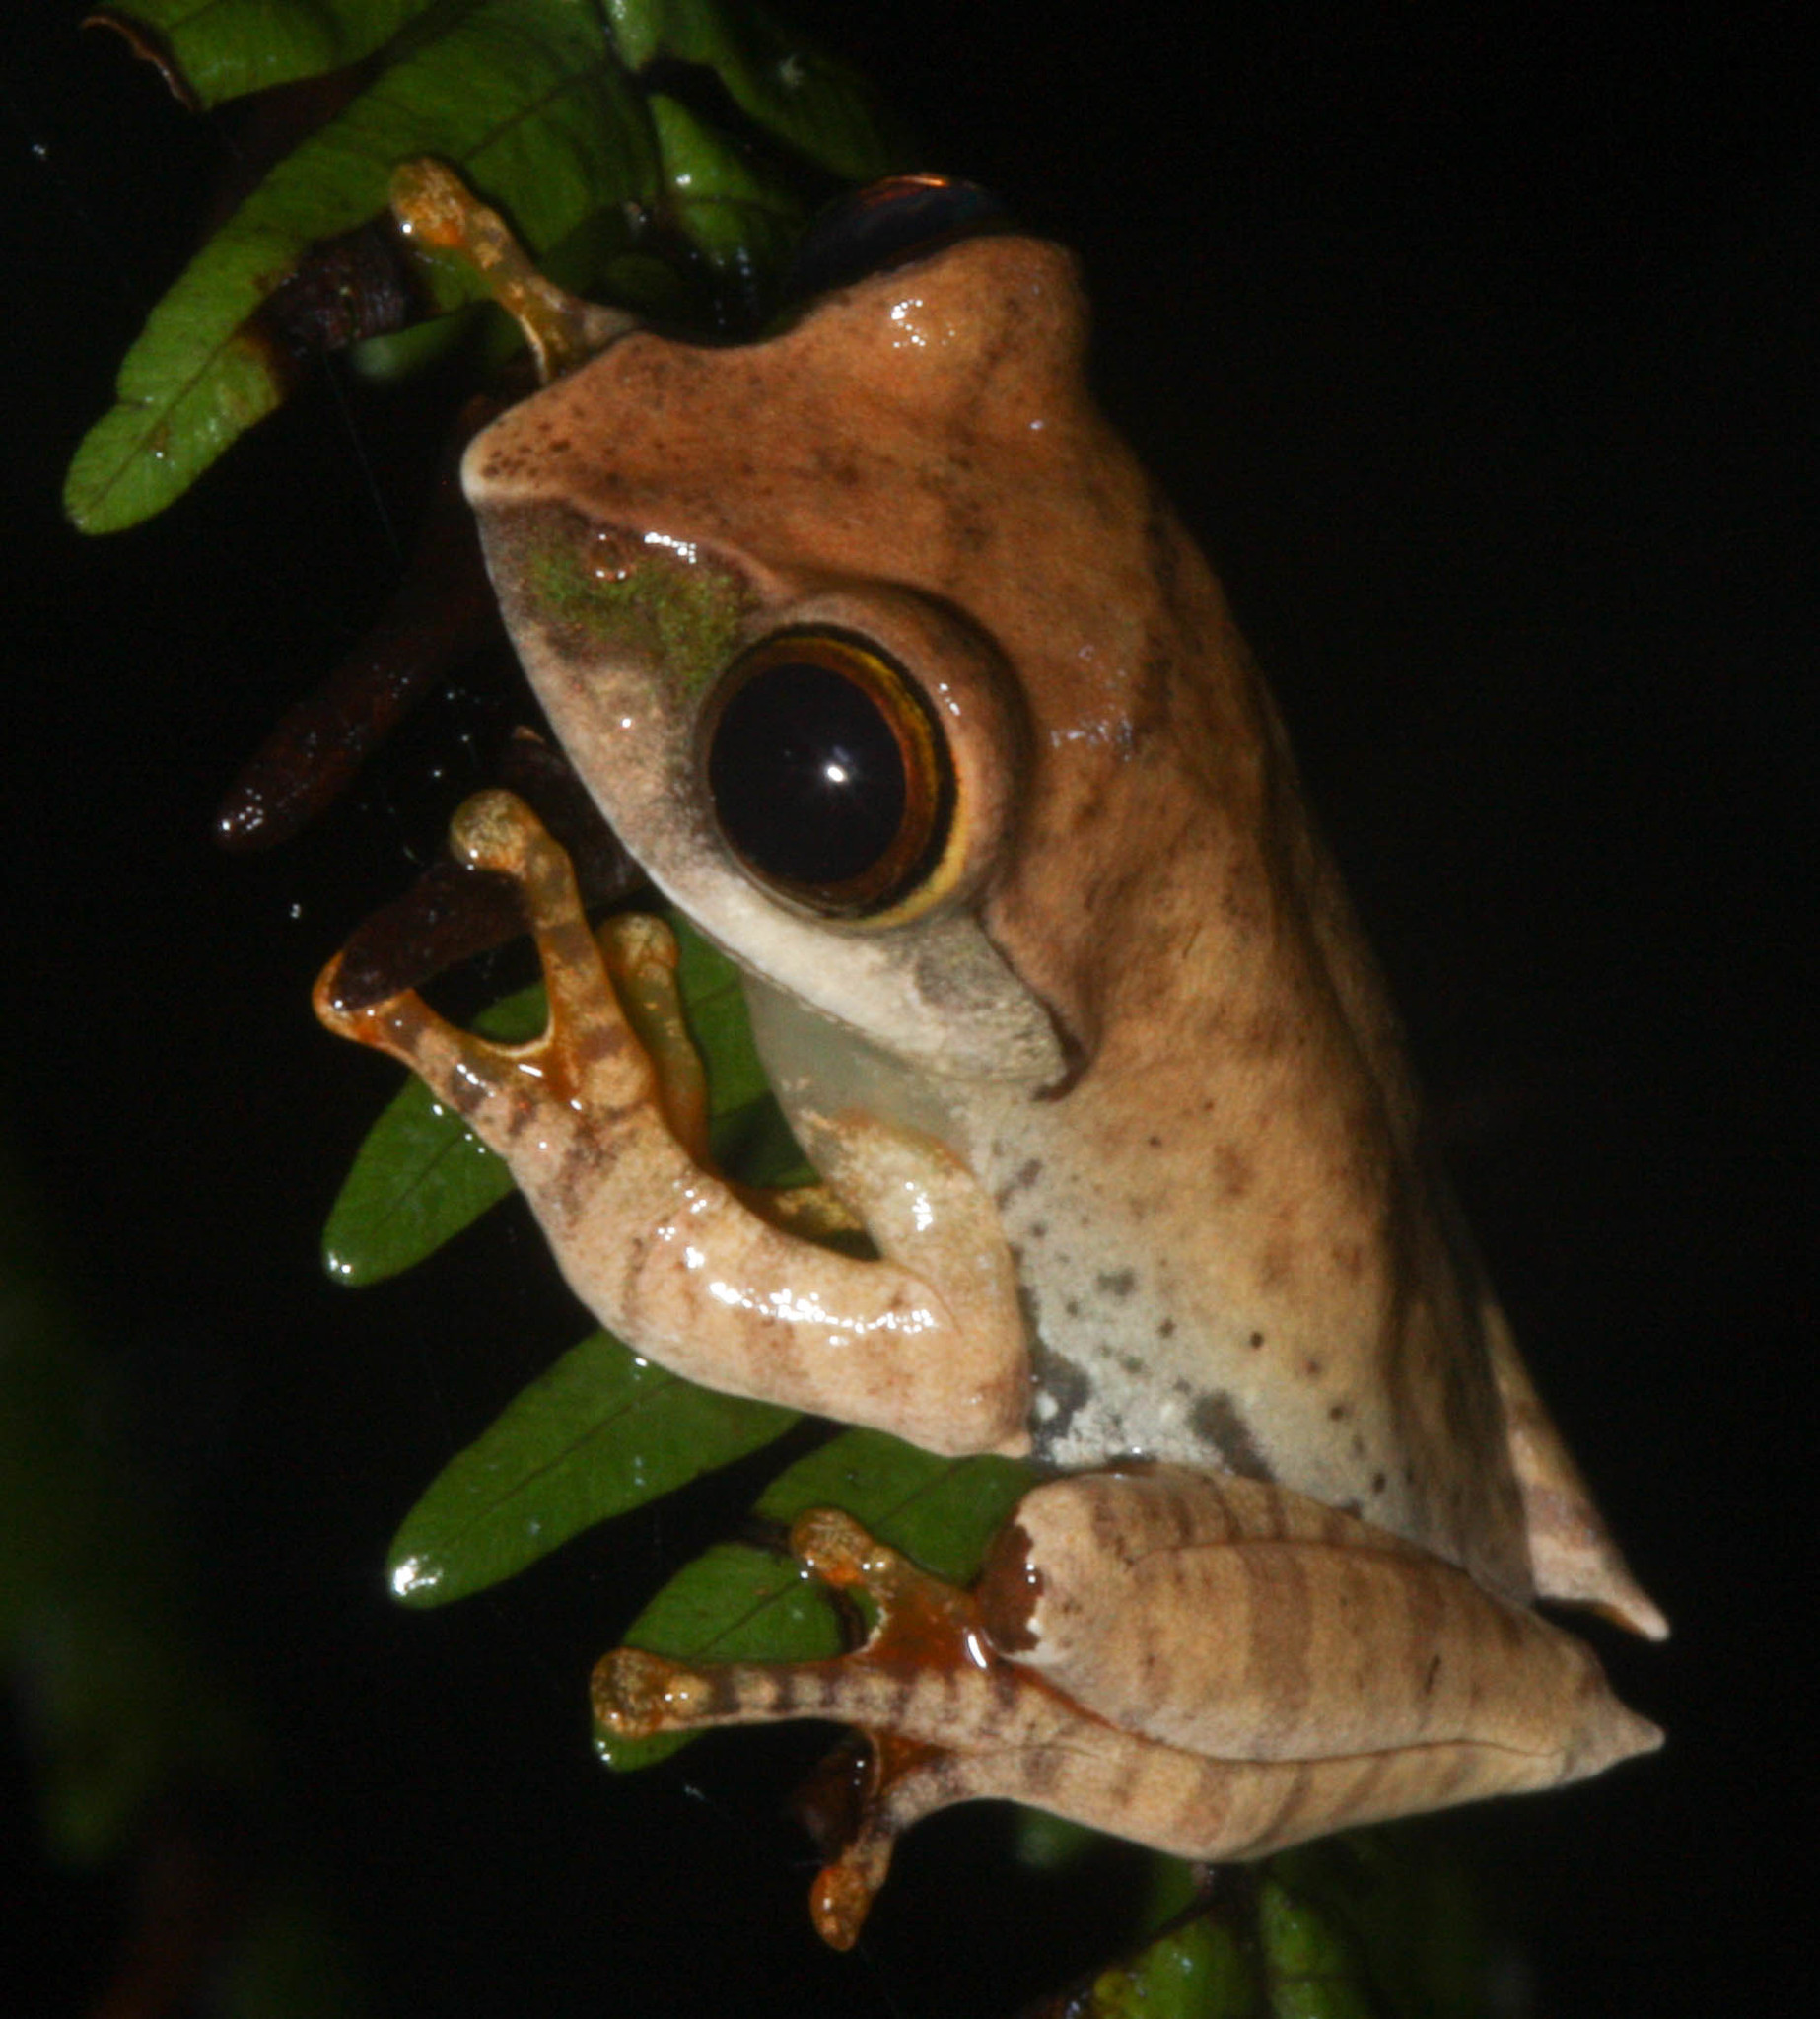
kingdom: Animalia
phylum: Chordata
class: Amphibia
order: Anura
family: Mantellidae
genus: Boophis
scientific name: Boophis madagascariensis
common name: Madagascar bright-eyed frog
